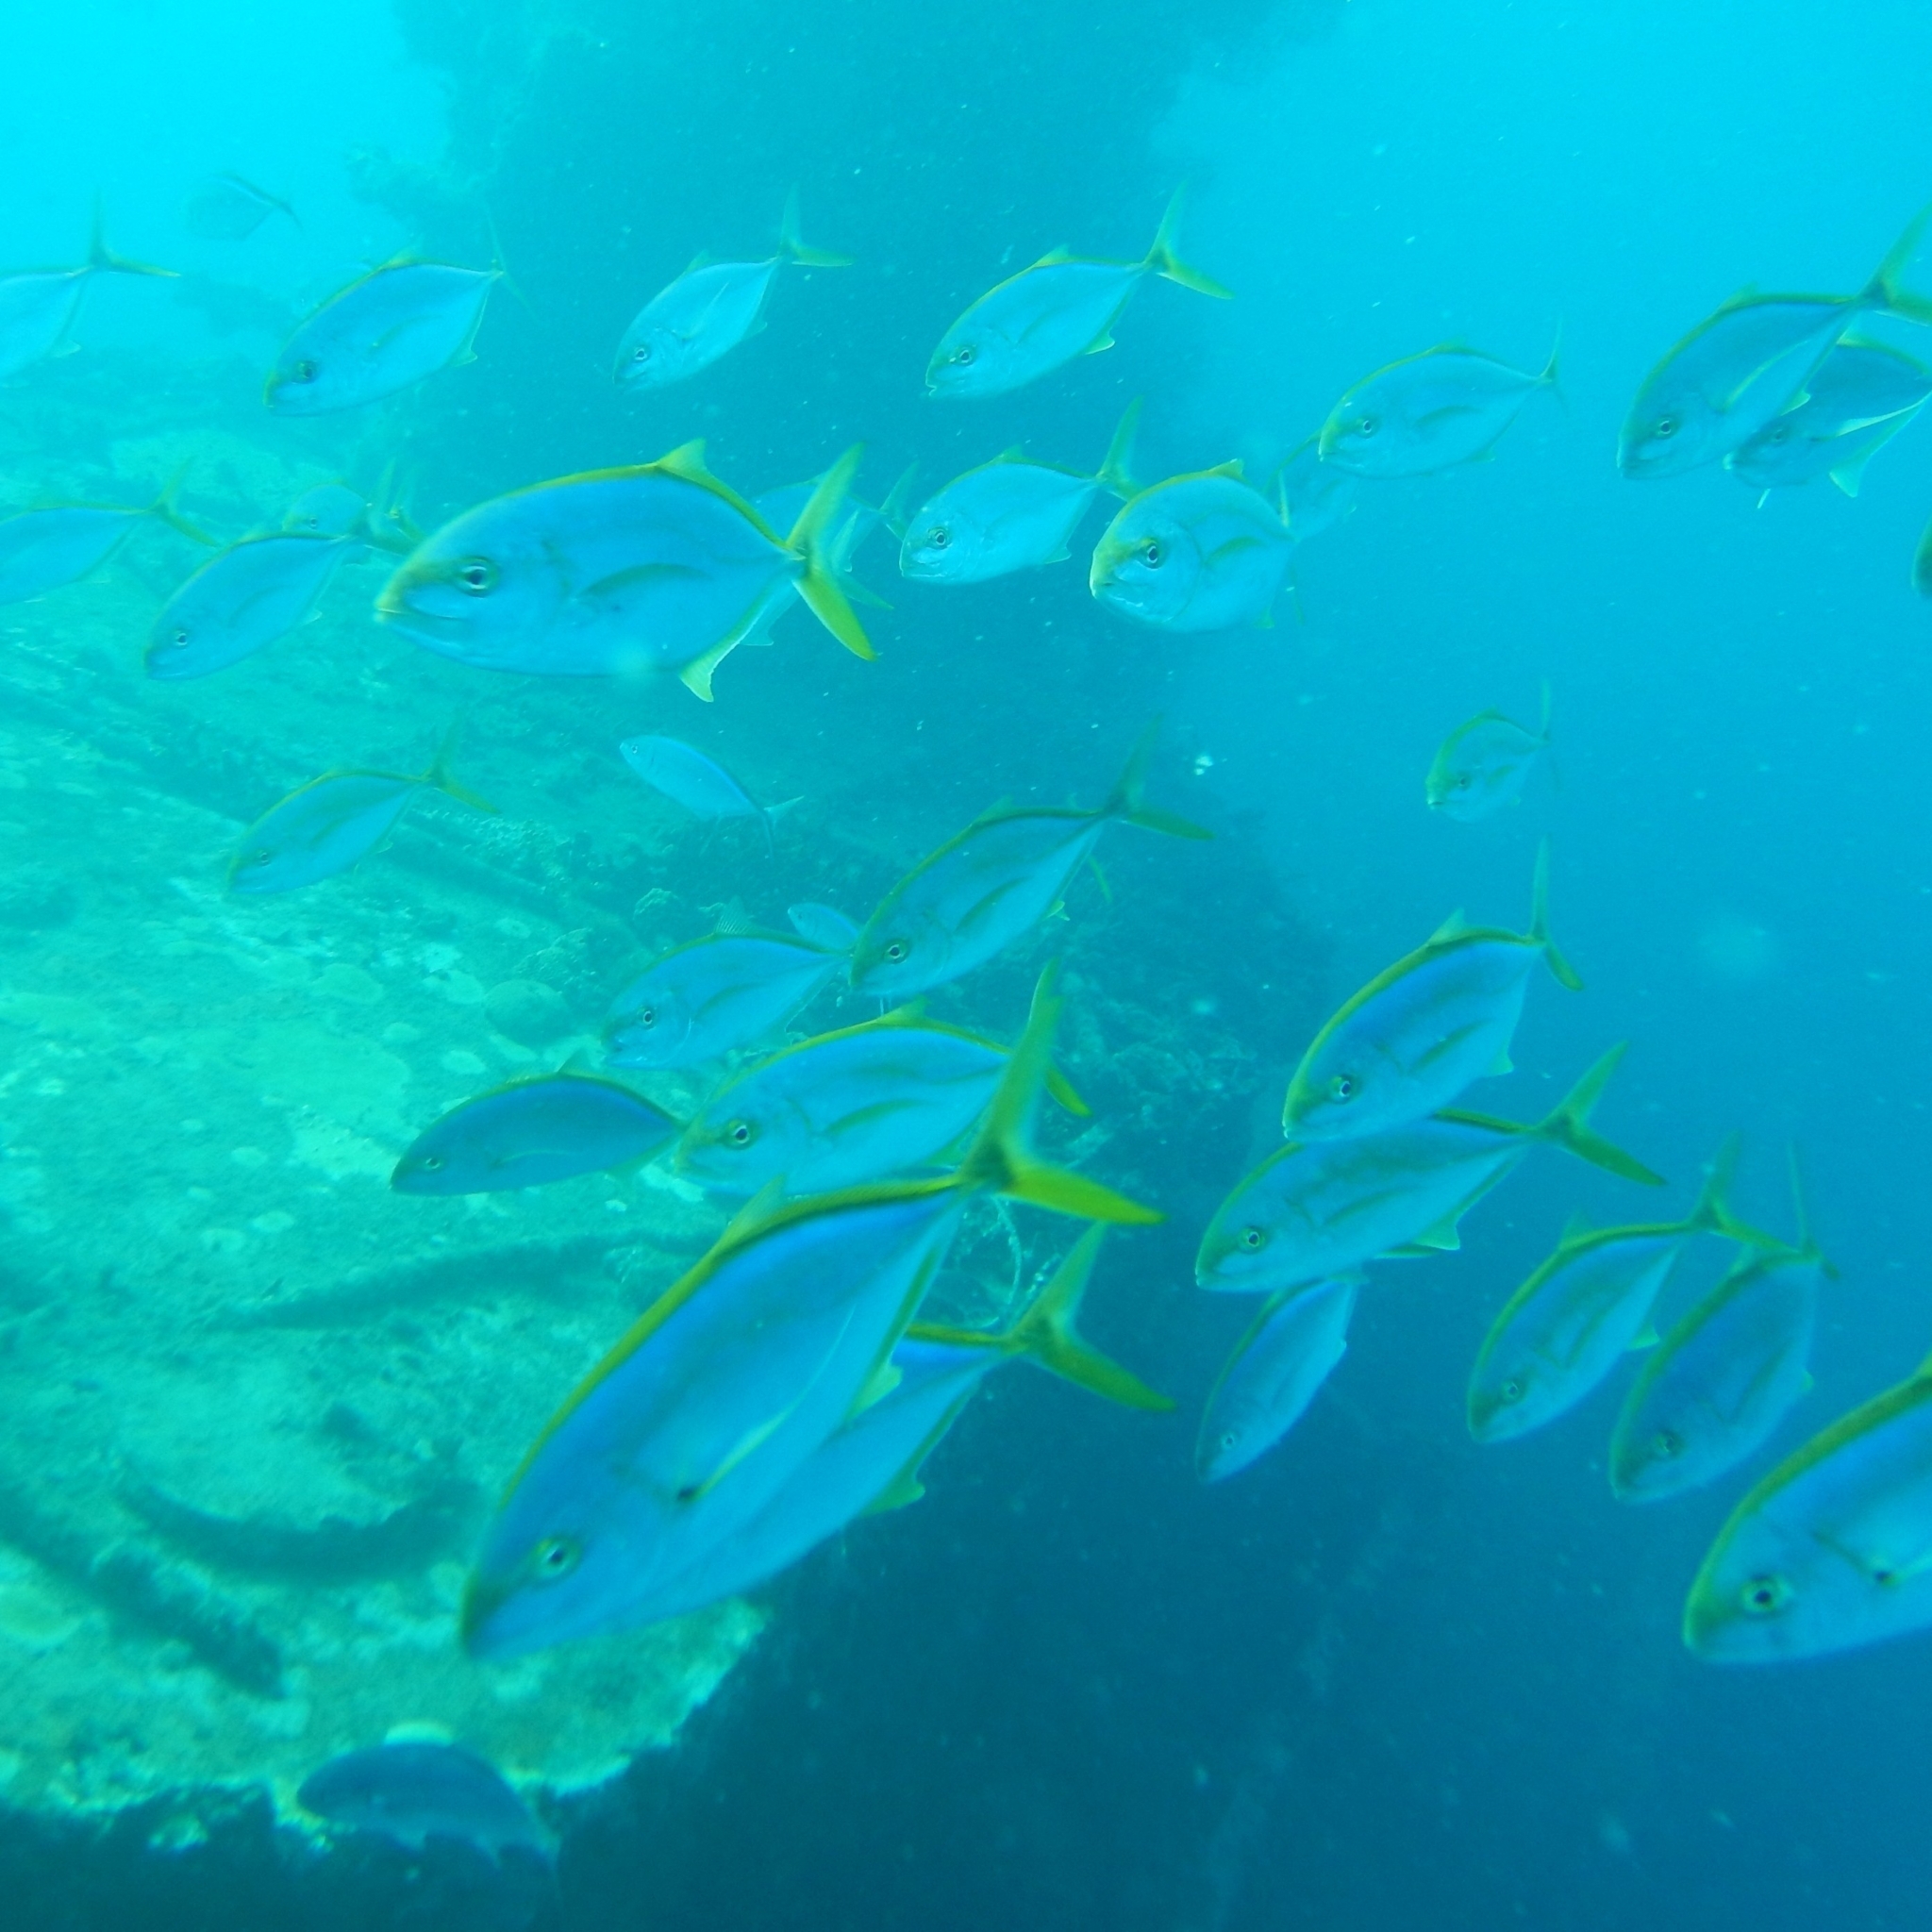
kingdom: Animalia
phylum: Chordata
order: Perciformes
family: Carangidae
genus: Carangoides
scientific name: Carangoides bartholomaei
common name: Yellow jack
